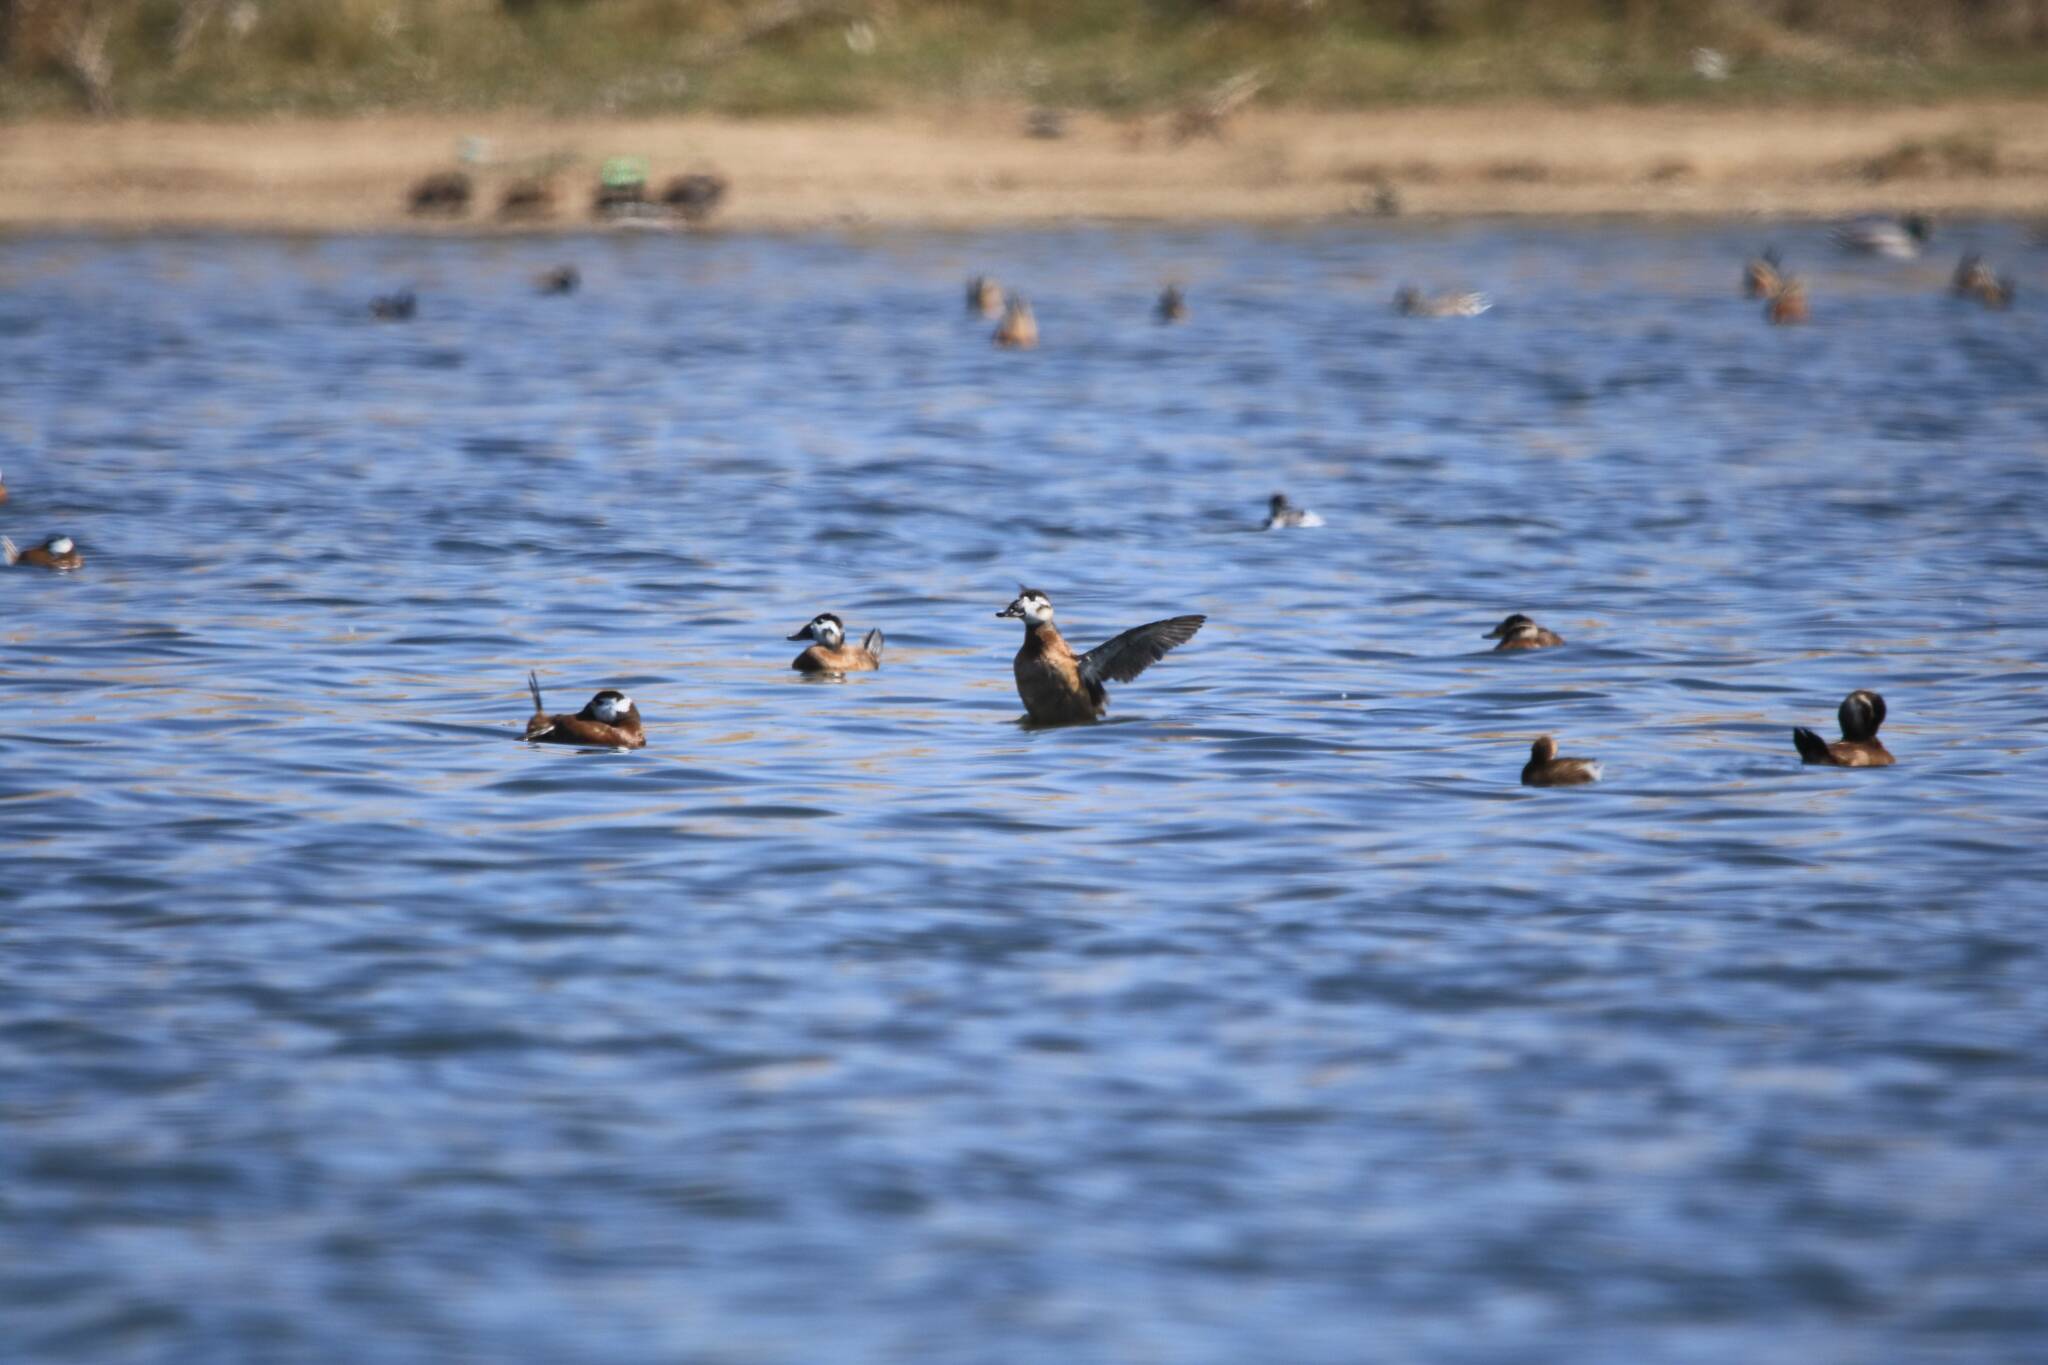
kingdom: Animalia
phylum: Chordata
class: Aves
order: Anseriformes
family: Anatidae
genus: Oxyura
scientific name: Oxyura leucocephala
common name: White-headed duck
